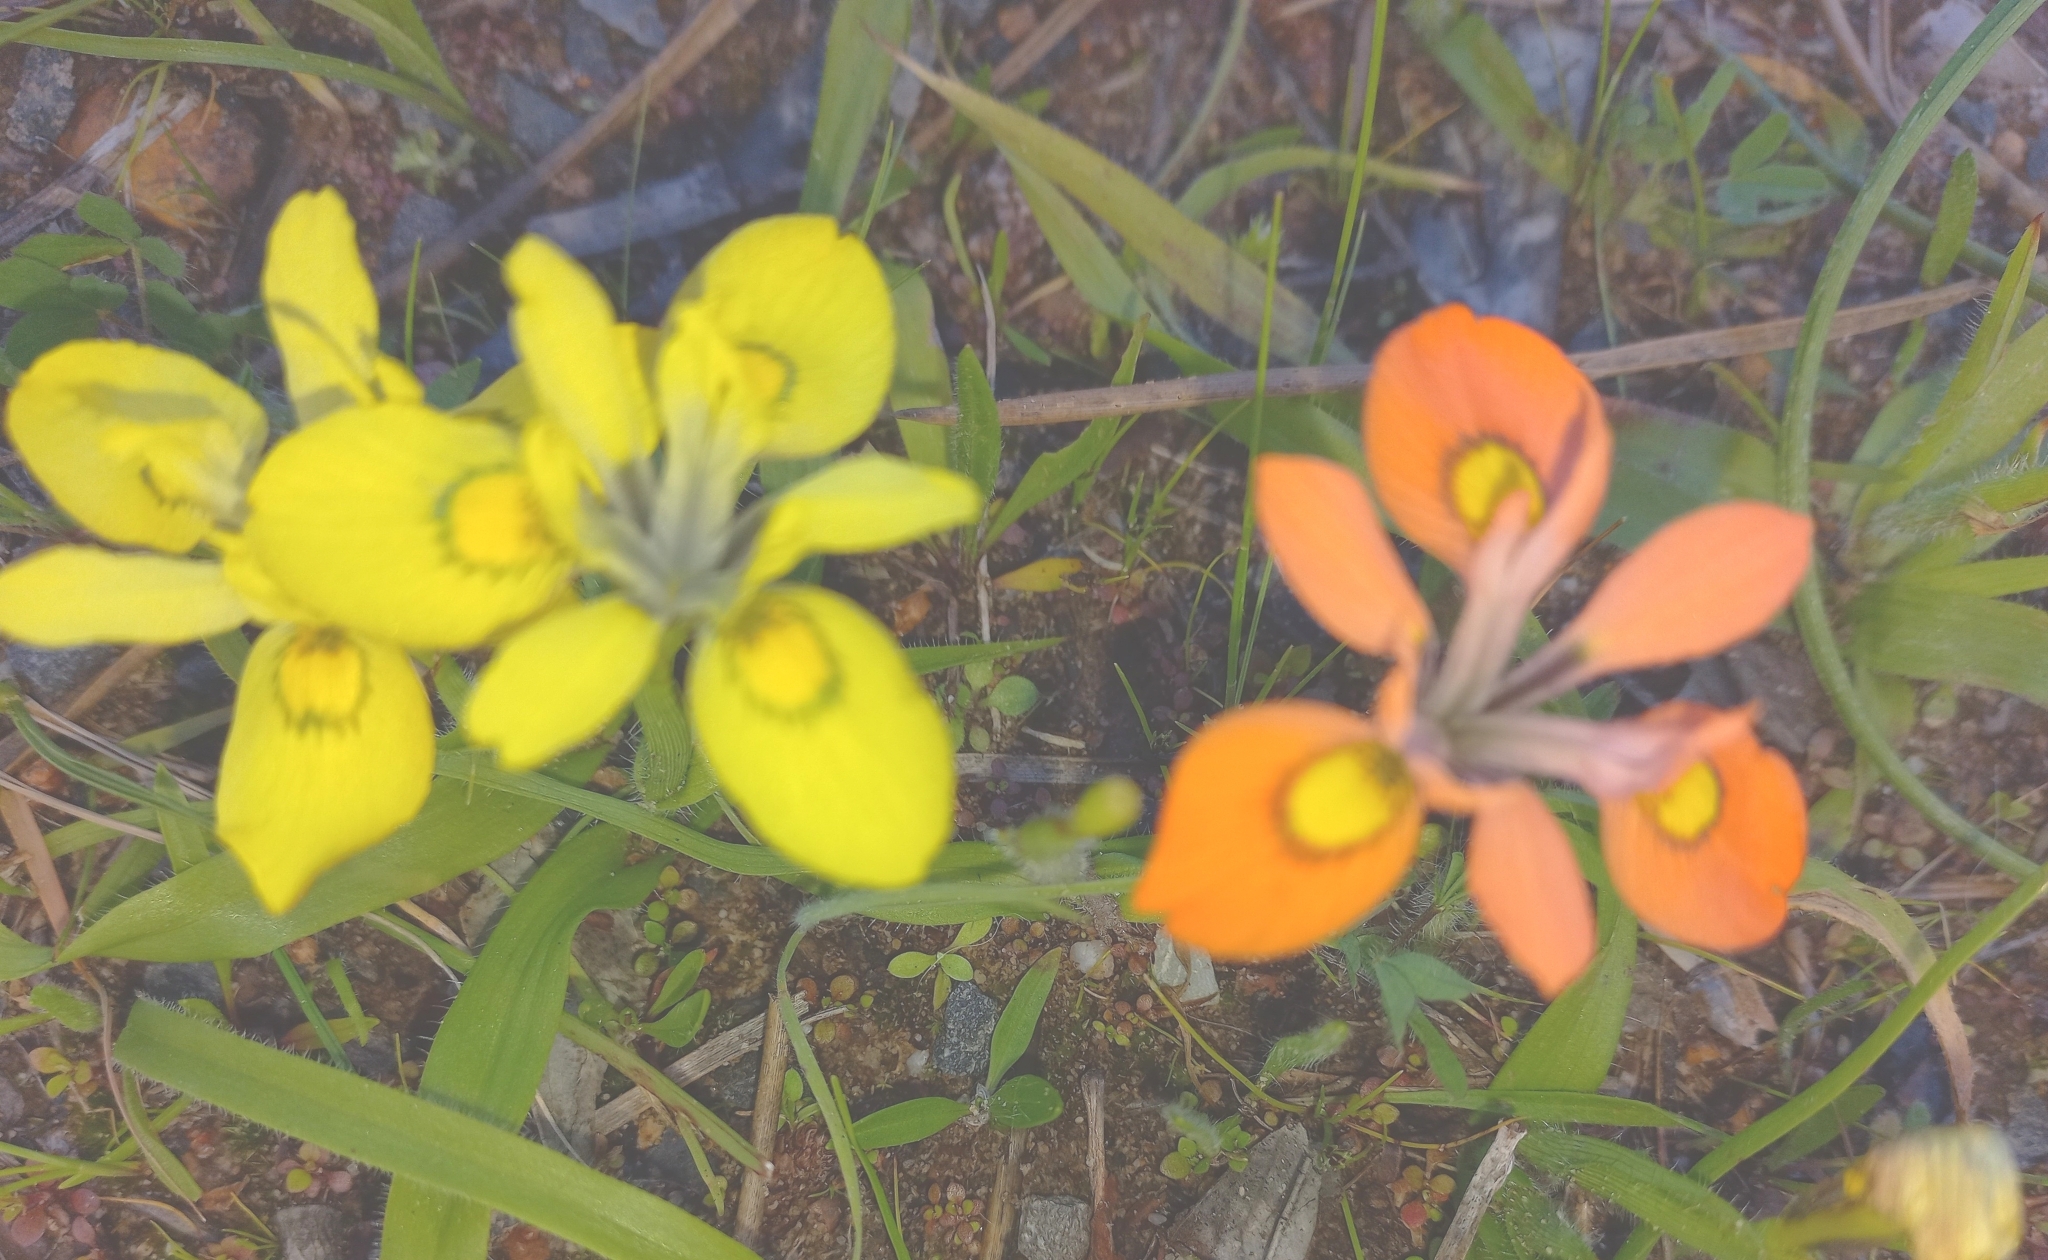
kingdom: Plantae
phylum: Tracheophyta
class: Liliopsida
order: Asparagales
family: Iridaceae
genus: Moraea
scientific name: Moraea papilionacea
